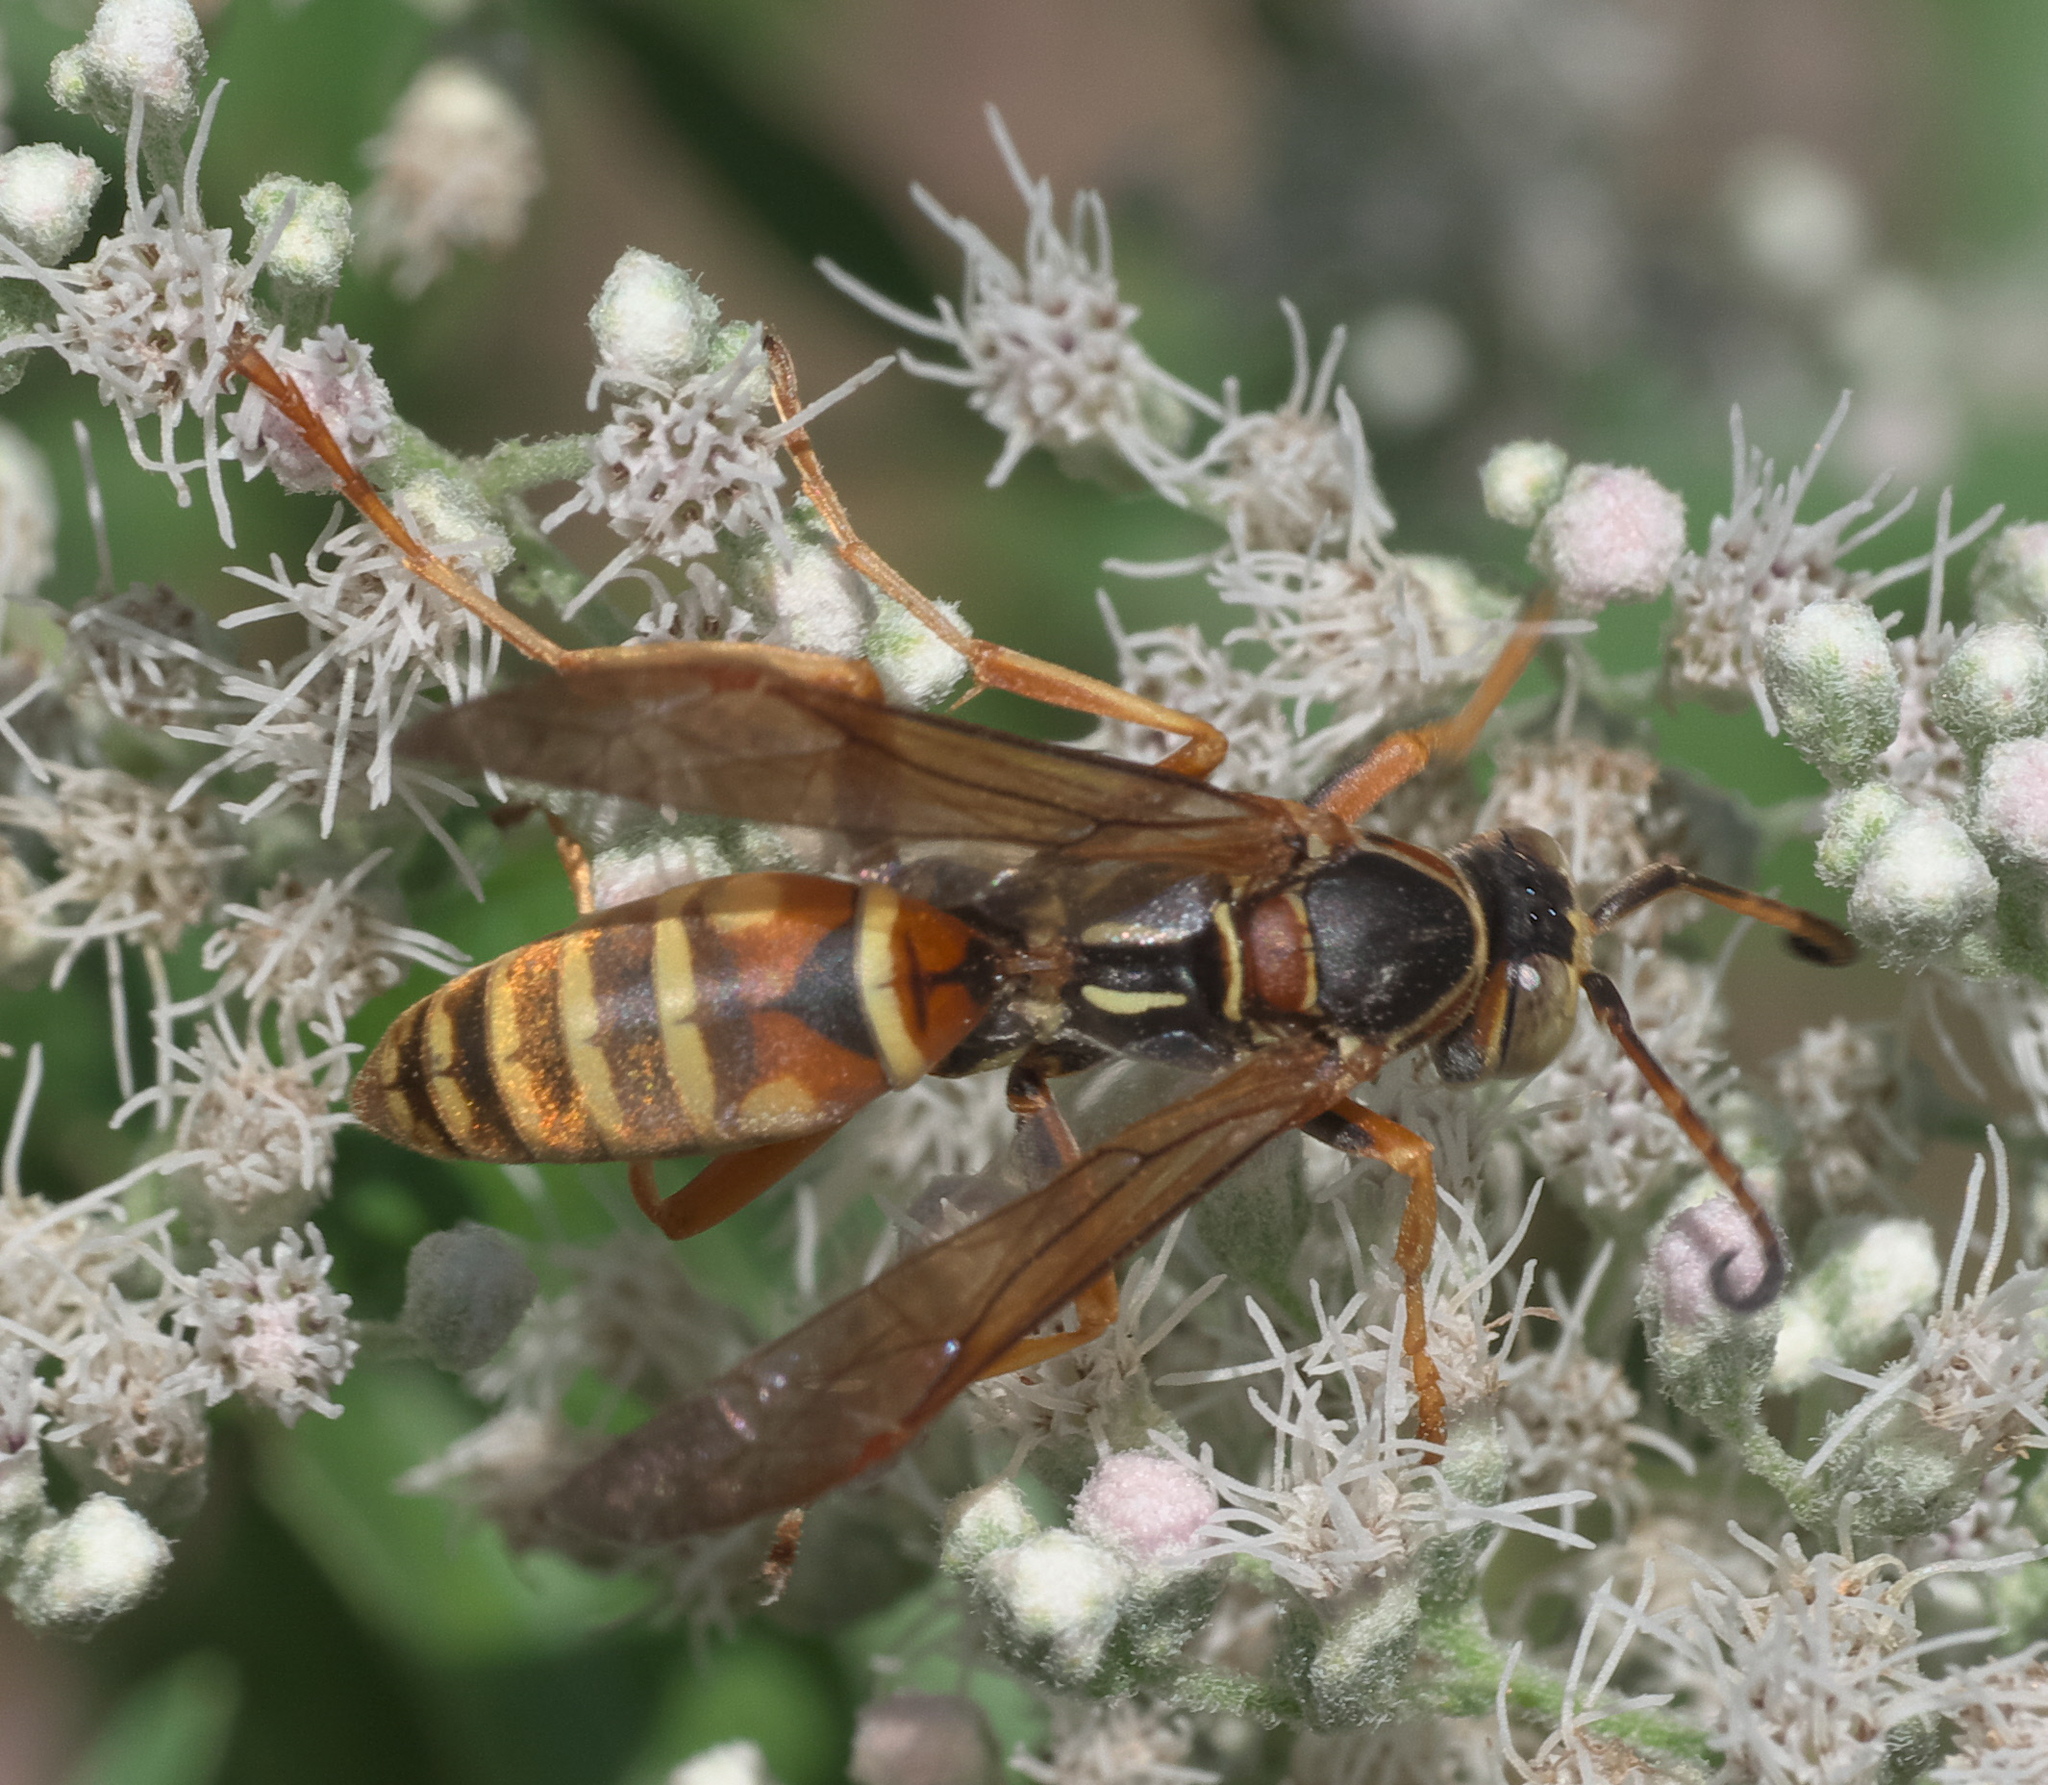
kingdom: Animalia
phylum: Arthropoda
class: Insecta
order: Hymenoptera
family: Eumenidae
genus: Polistes
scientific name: Polistes fuscatus
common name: Dark paper wasp
